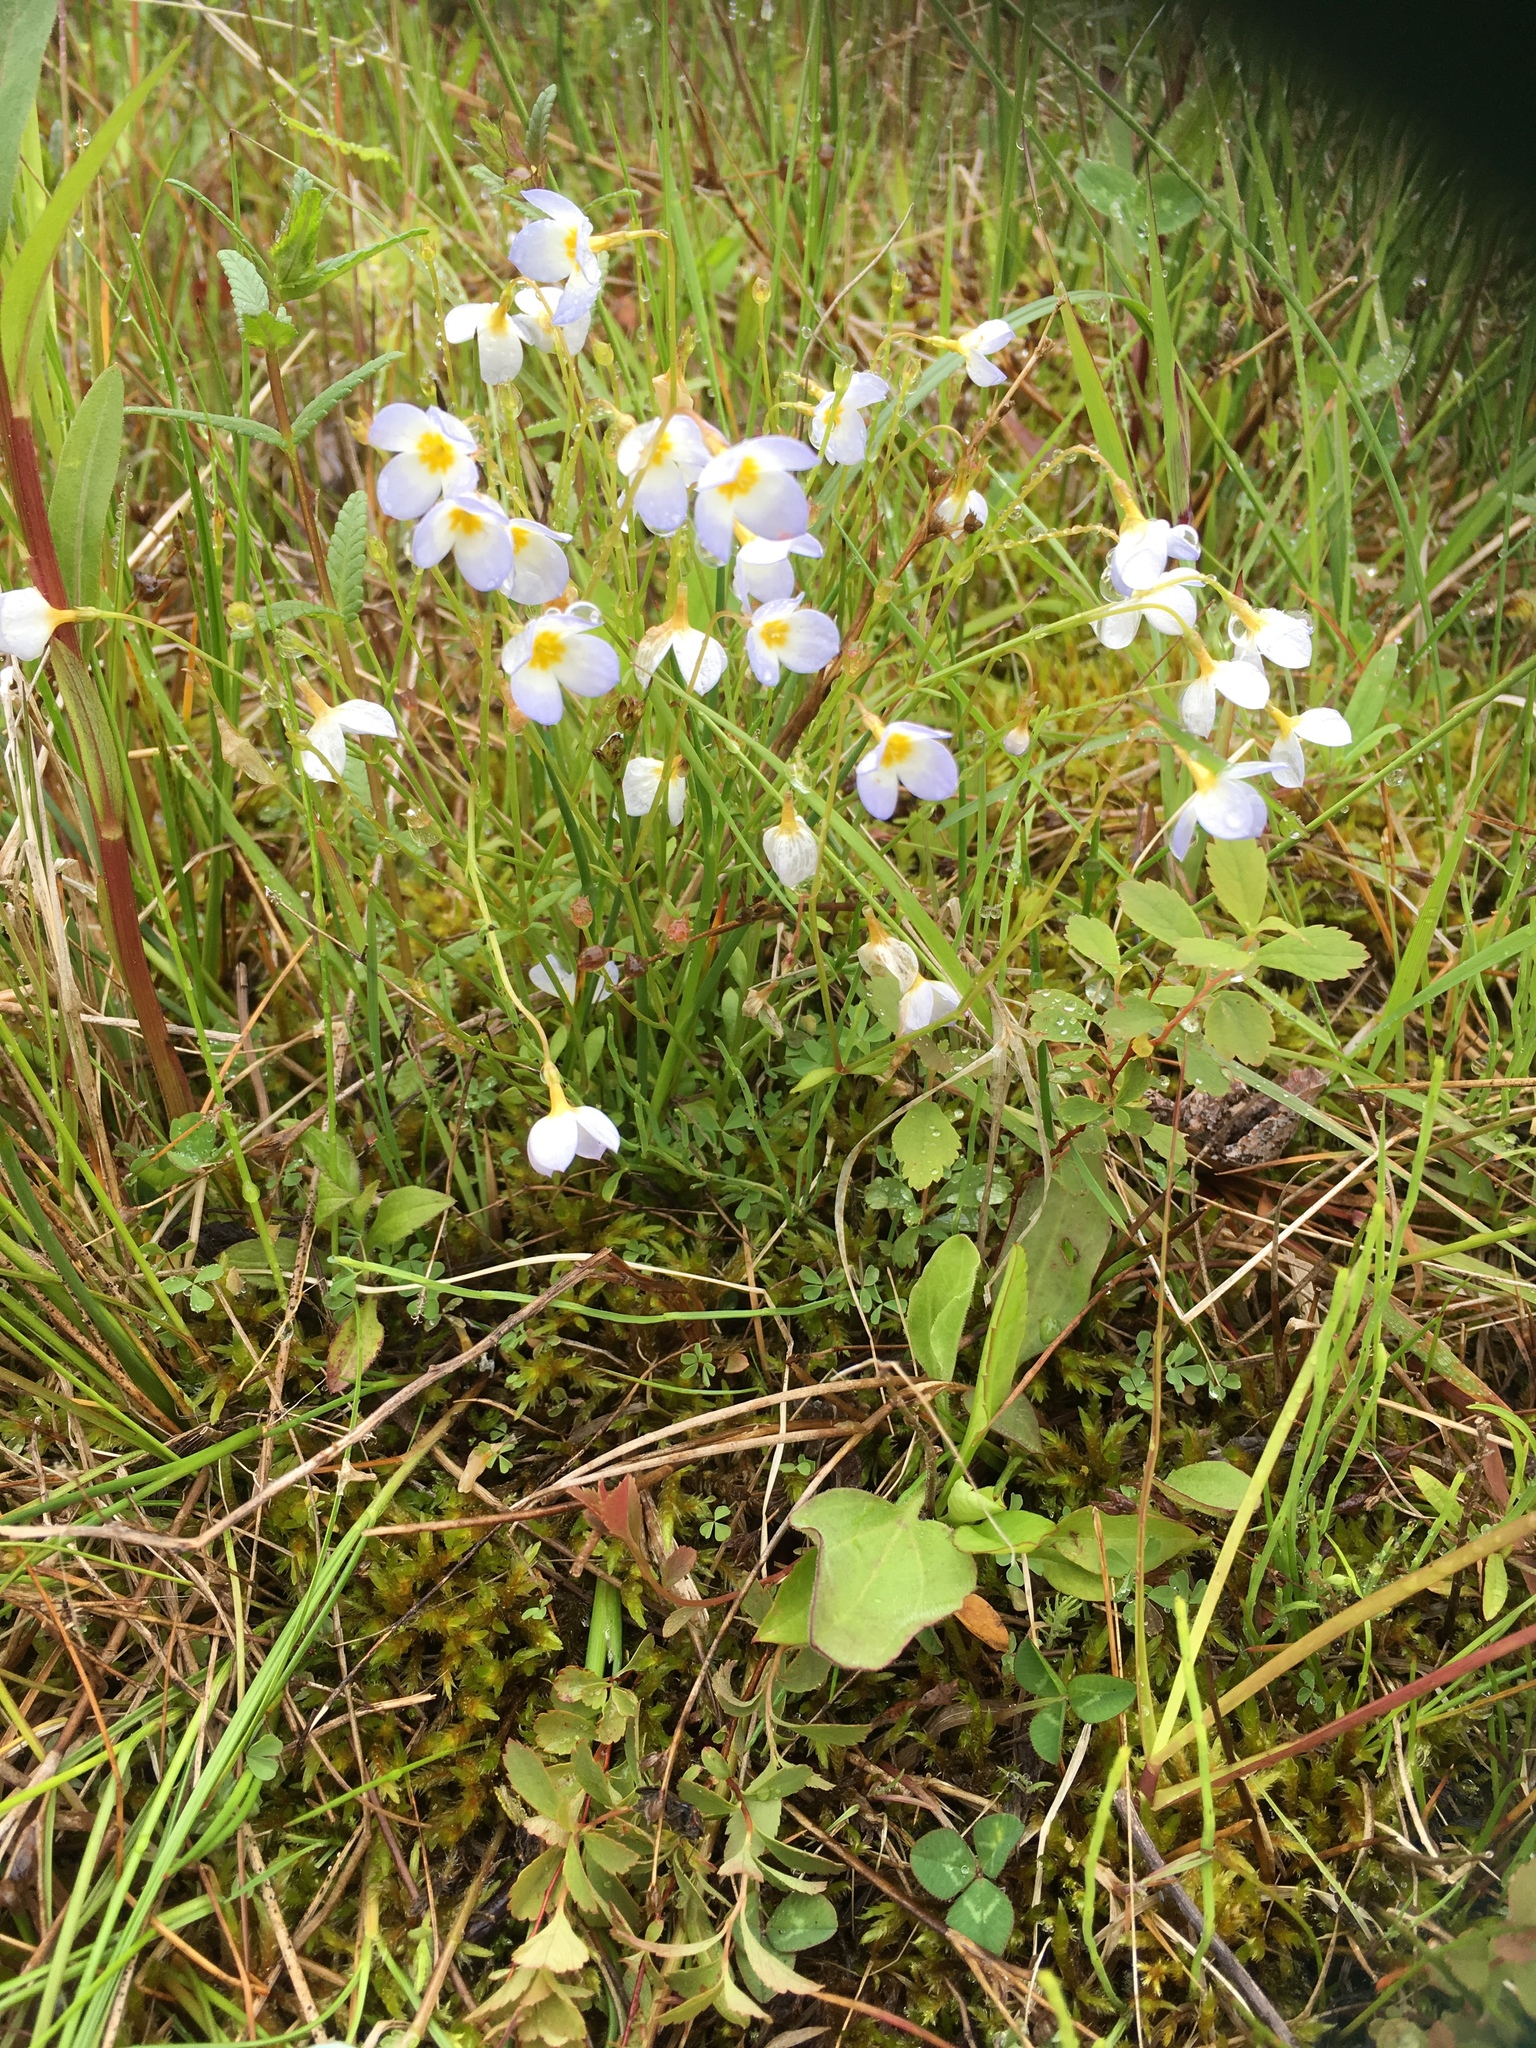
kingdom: Plantae
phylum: Tracheophyta
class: Magnoliopsida
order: Gentianales
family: Rubiaceae
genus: Houstonia
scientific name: Houstonia caerulea
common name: Bluets
